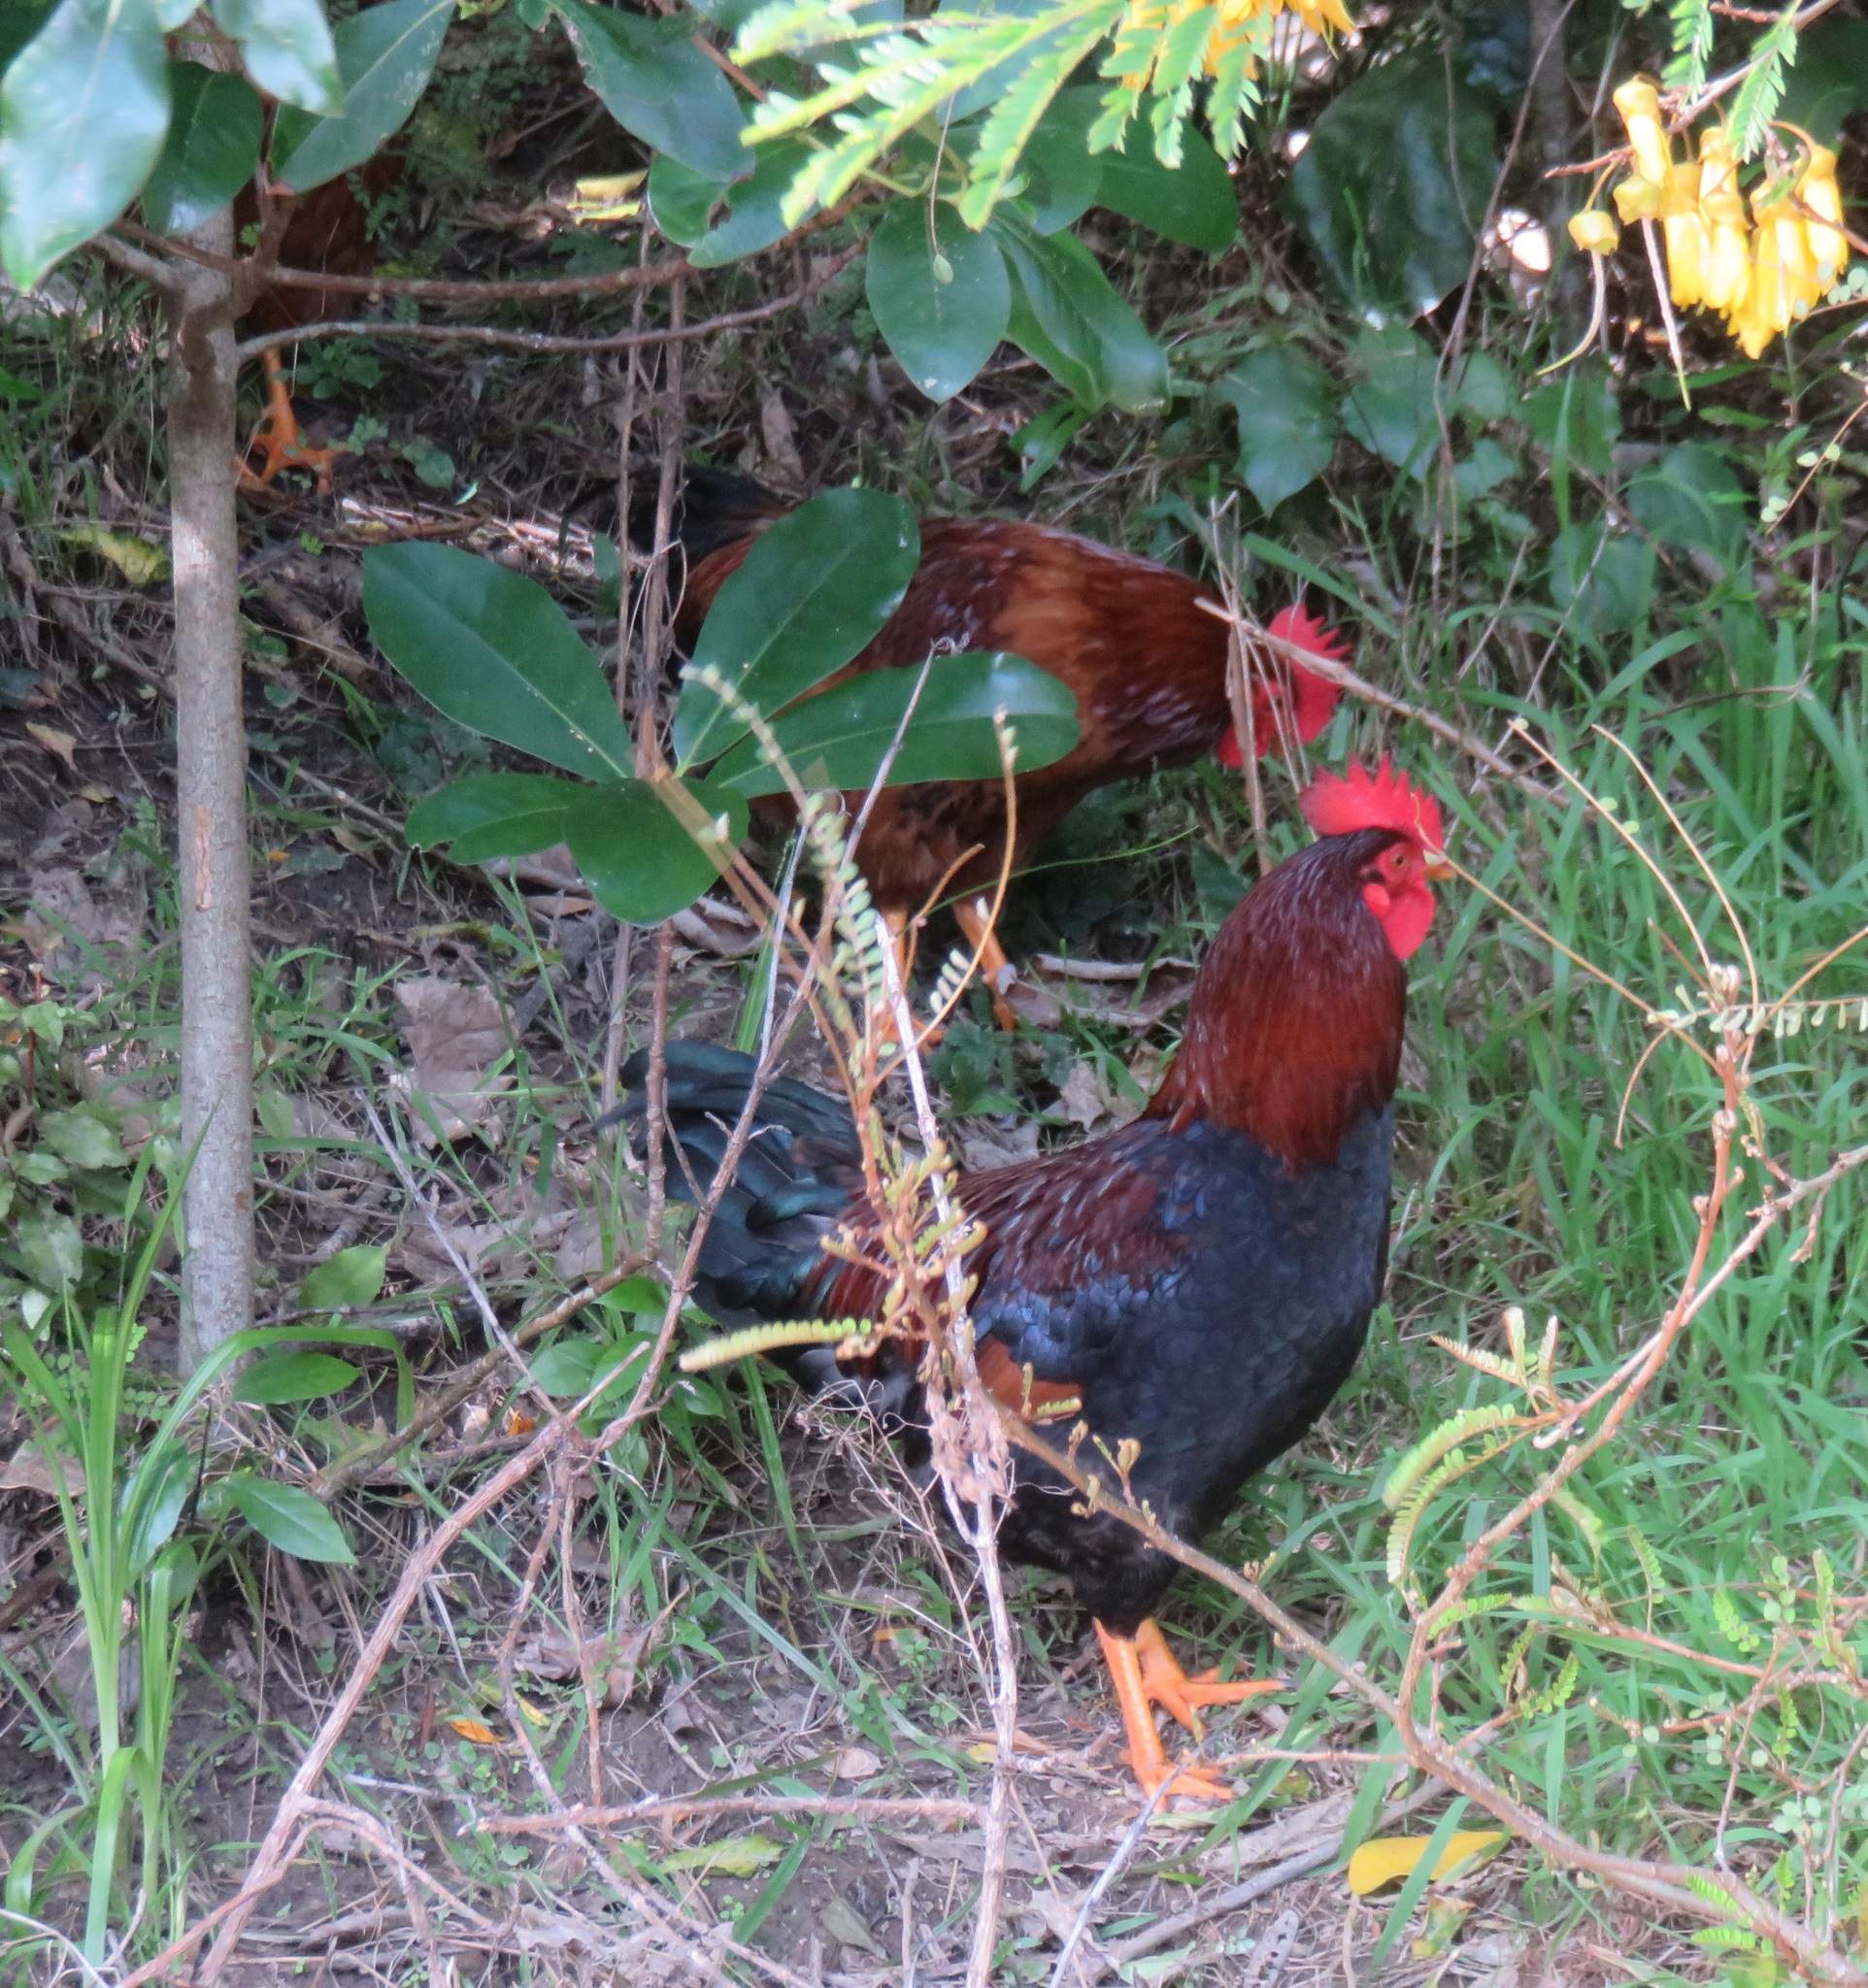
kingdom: Animalia
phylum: Chordata
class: Aves
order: Galliformes
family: Phasianidae
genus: Gallus
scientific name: Gallus gallus
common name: Red junglefowl
